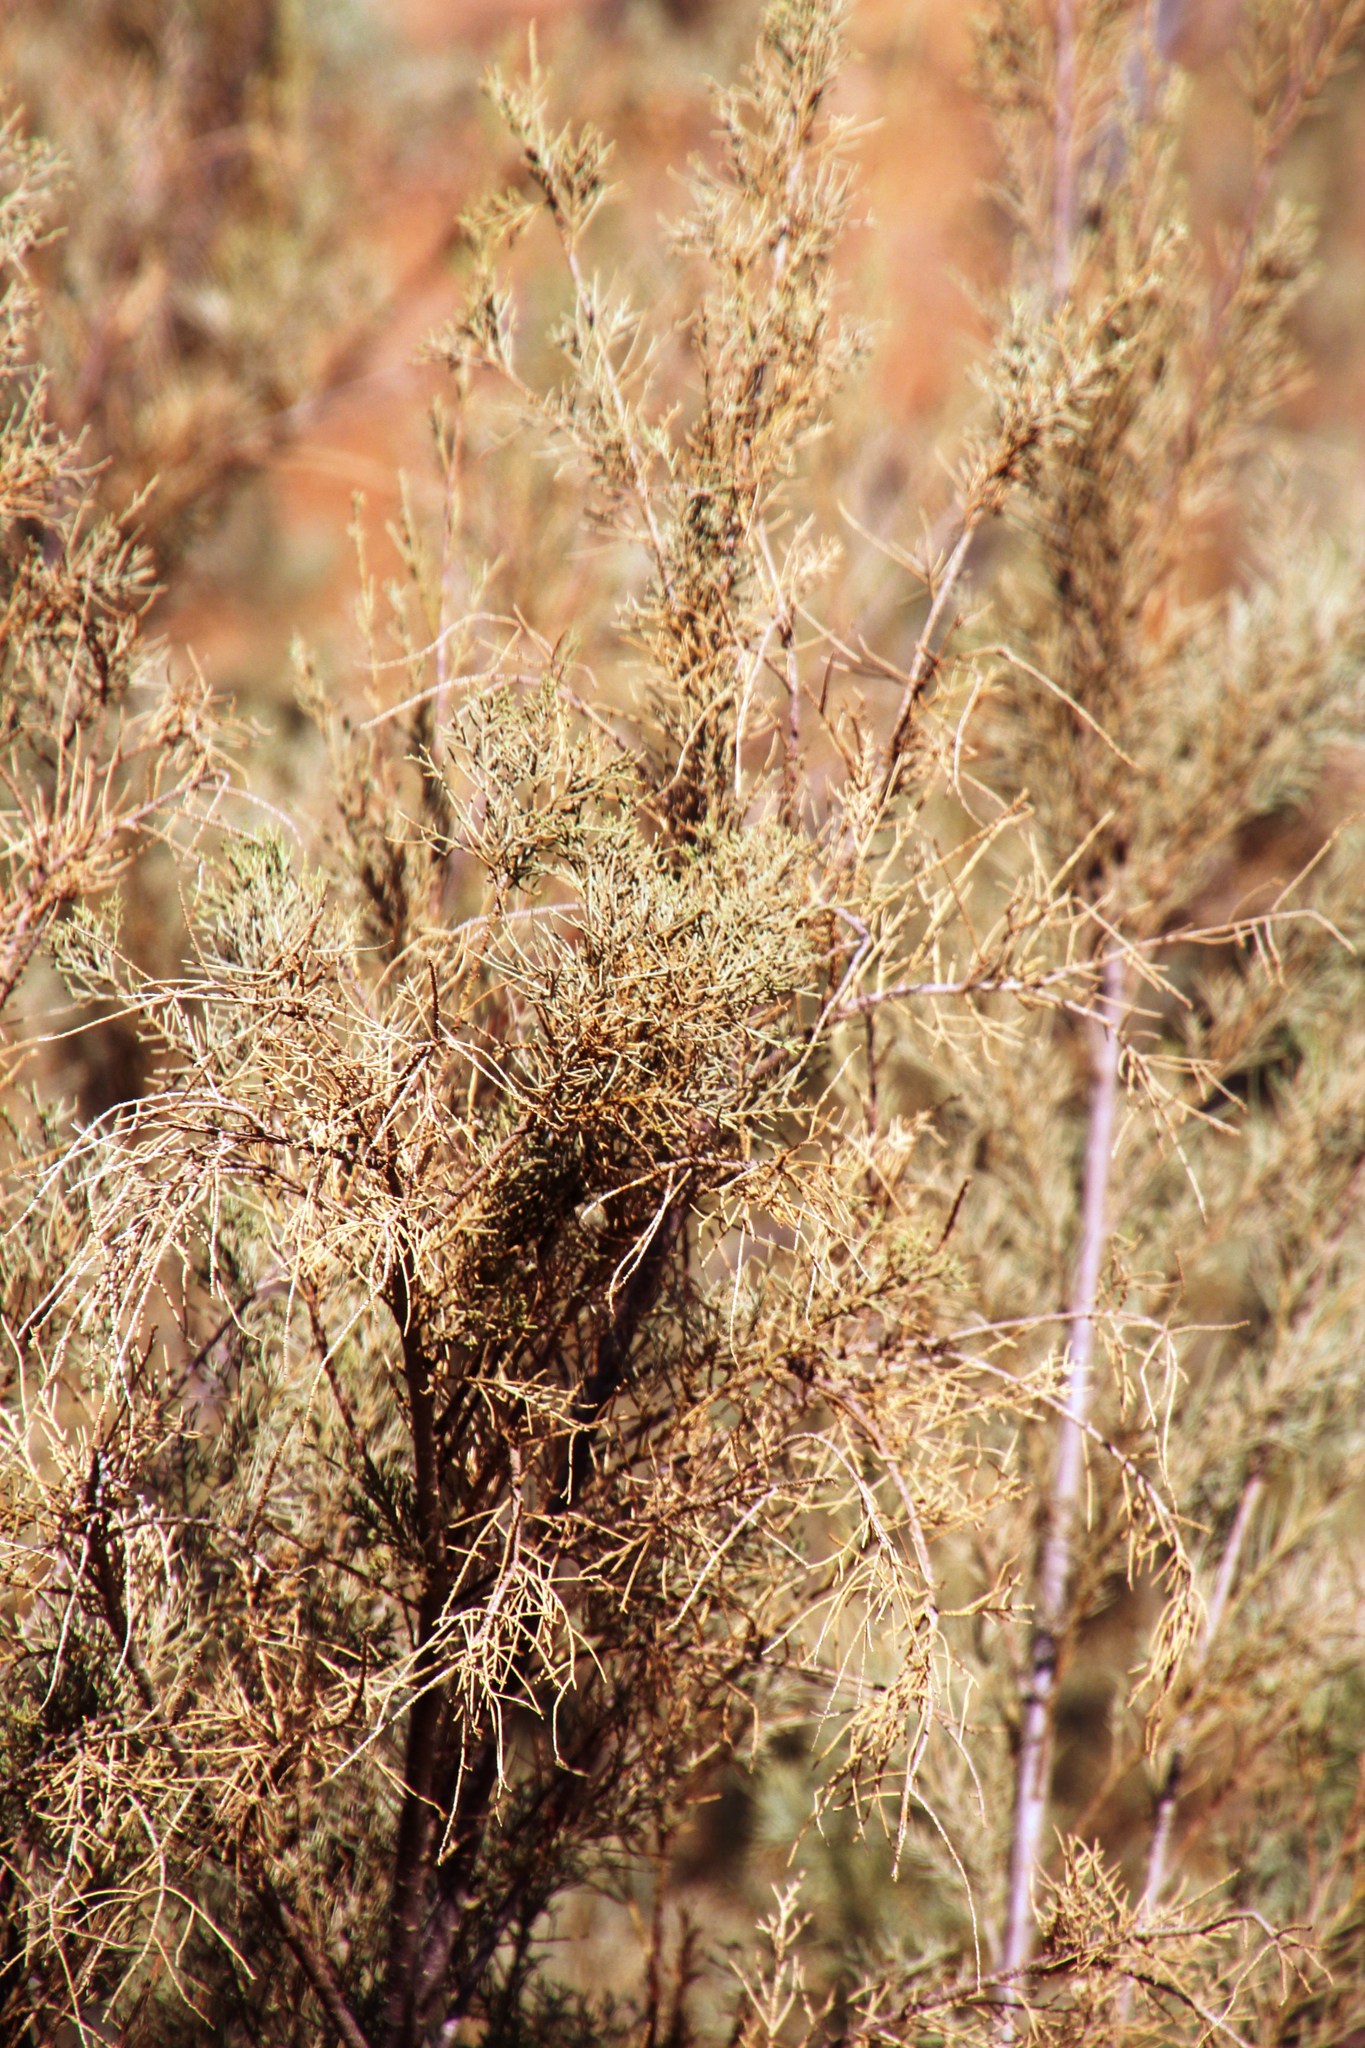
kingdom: Plantae
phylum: Tracheophyta
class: Magnoliopsida
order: Caryophyllales
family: Tamaricaceae
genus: Tamarix
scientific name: Tamarix usneoides
